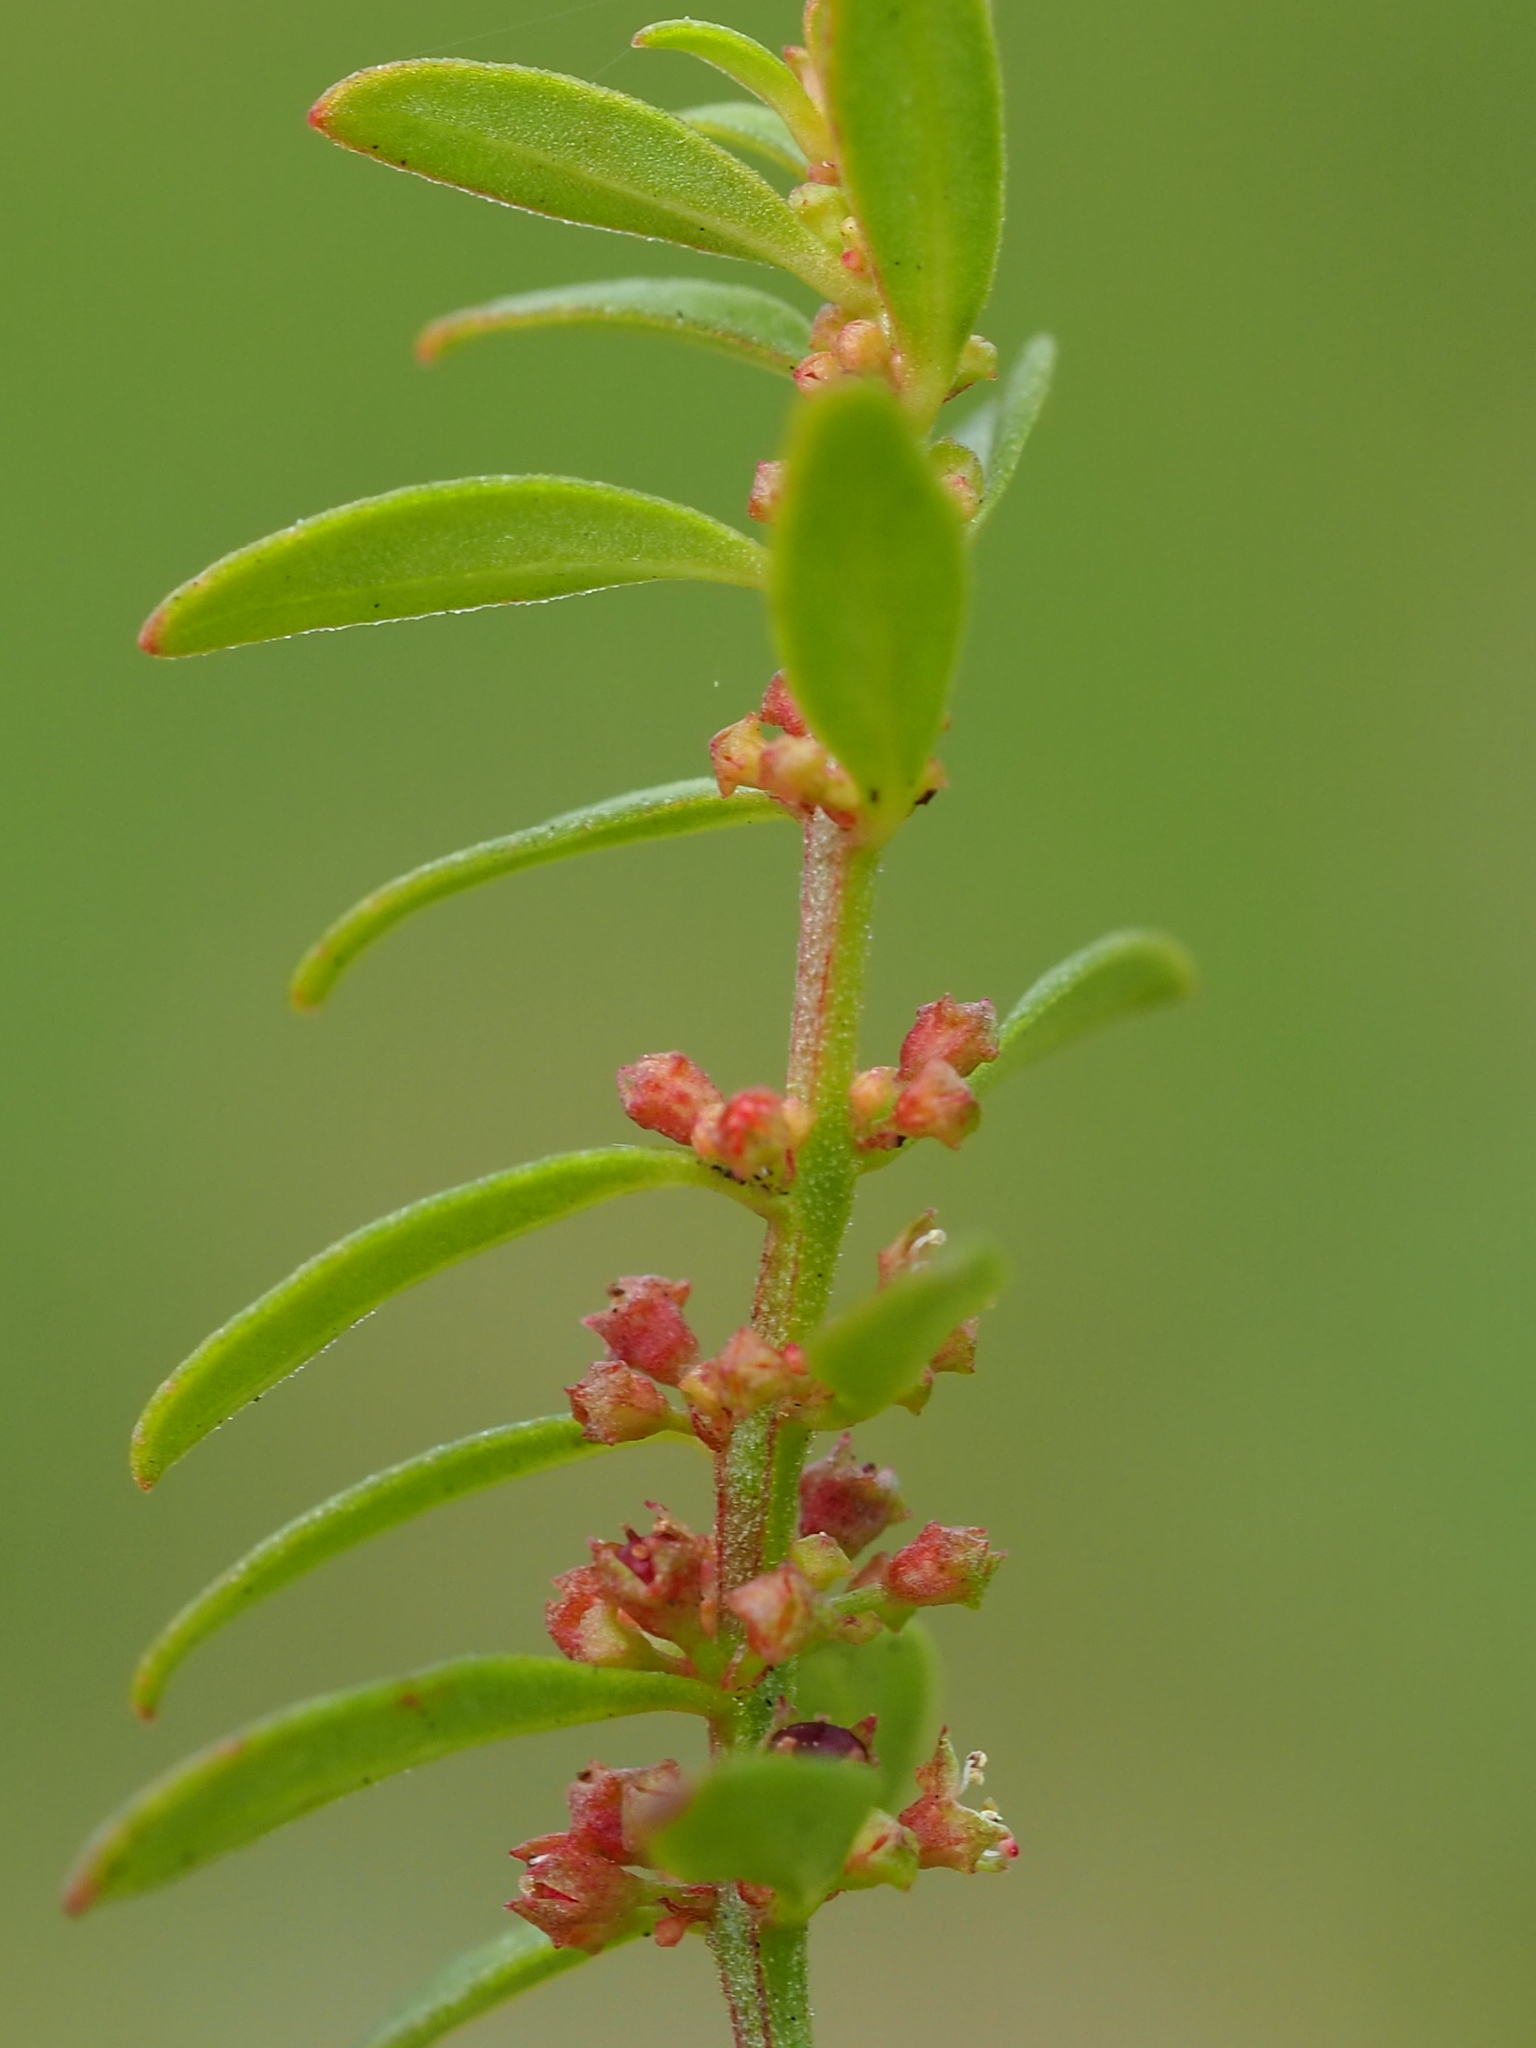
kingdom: Plantae
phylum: Tracheophyta
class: Magnoliopsida
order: Myrtales
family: Lythraceae
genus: Ammannia
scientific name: Ammannia baccifera
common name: Blistering ammania
